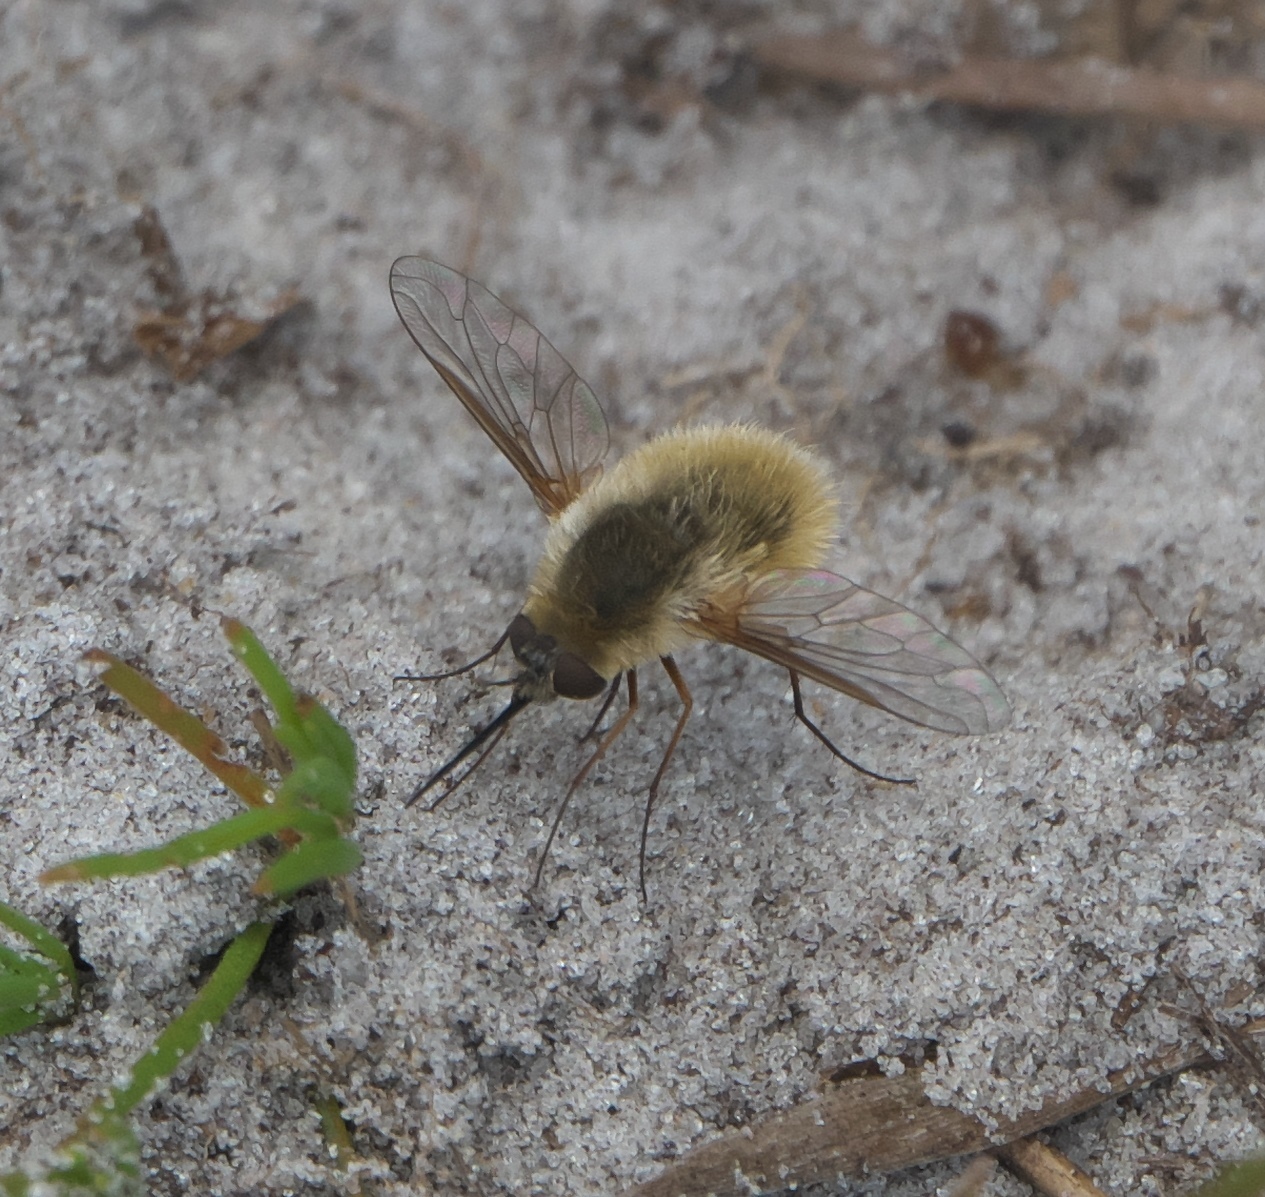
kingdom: Animalia
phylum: Arthropoda
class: Insecta
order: Diptera
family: Bombyliidae
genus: Systoechus
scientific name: Systoechus solitus
